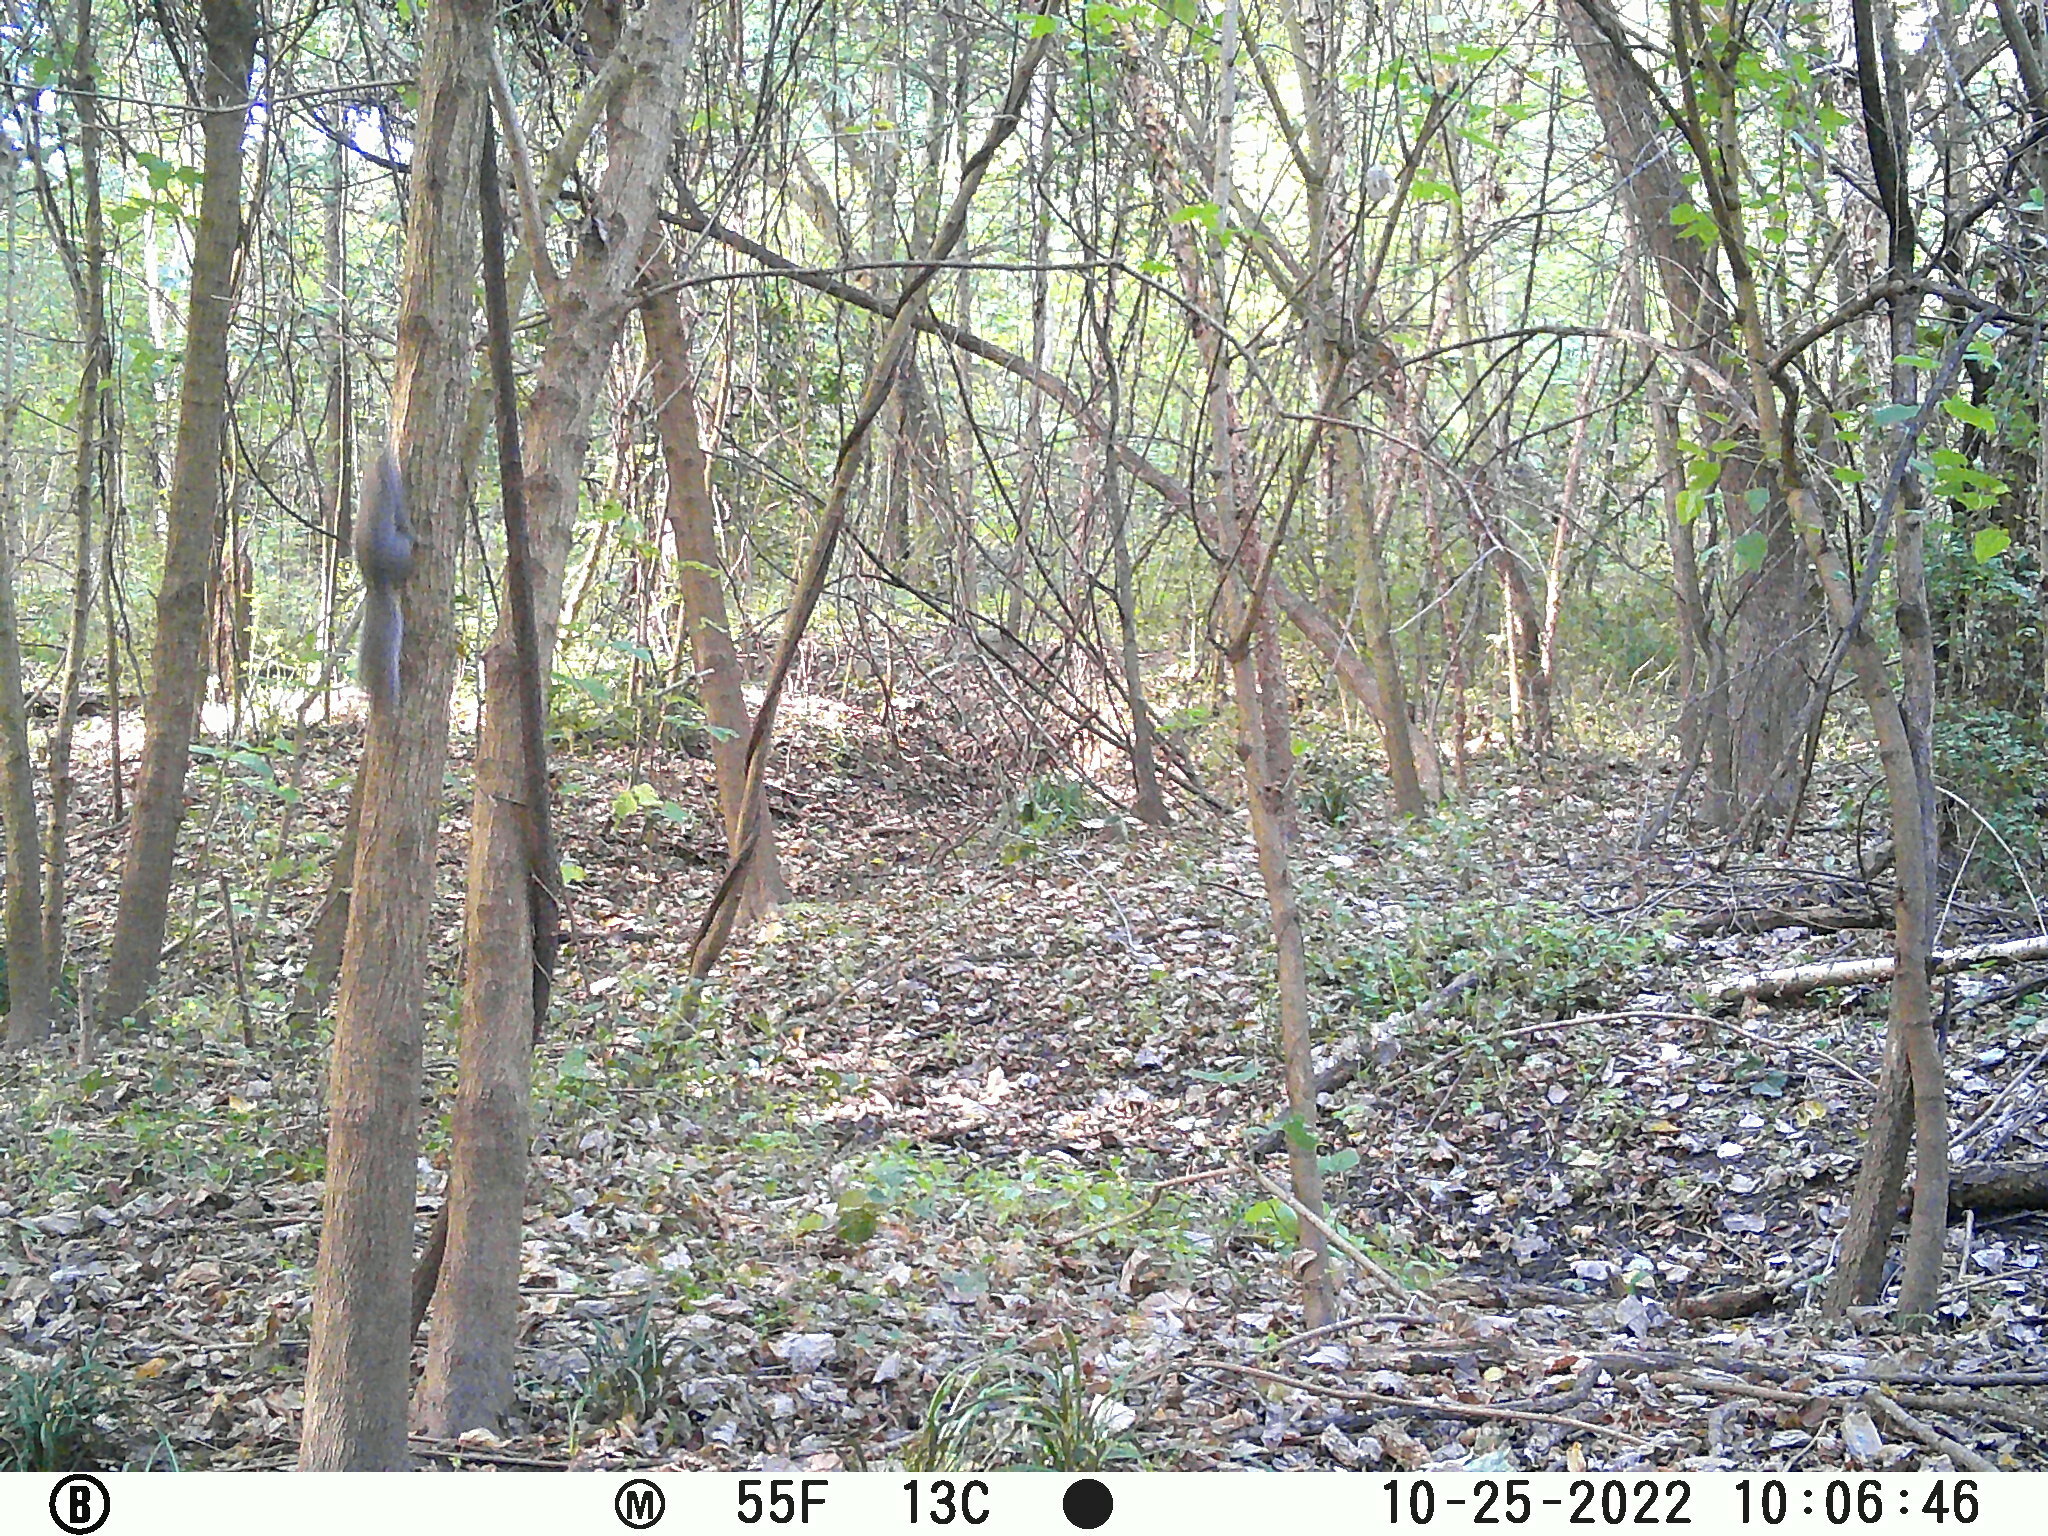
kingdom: Animalia
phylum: Chordata
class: Mammalia
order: Rodentia
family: Sciuridae
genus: Sciurus
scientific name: Sciurus carolinensis
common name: Eastern gray squirrel
